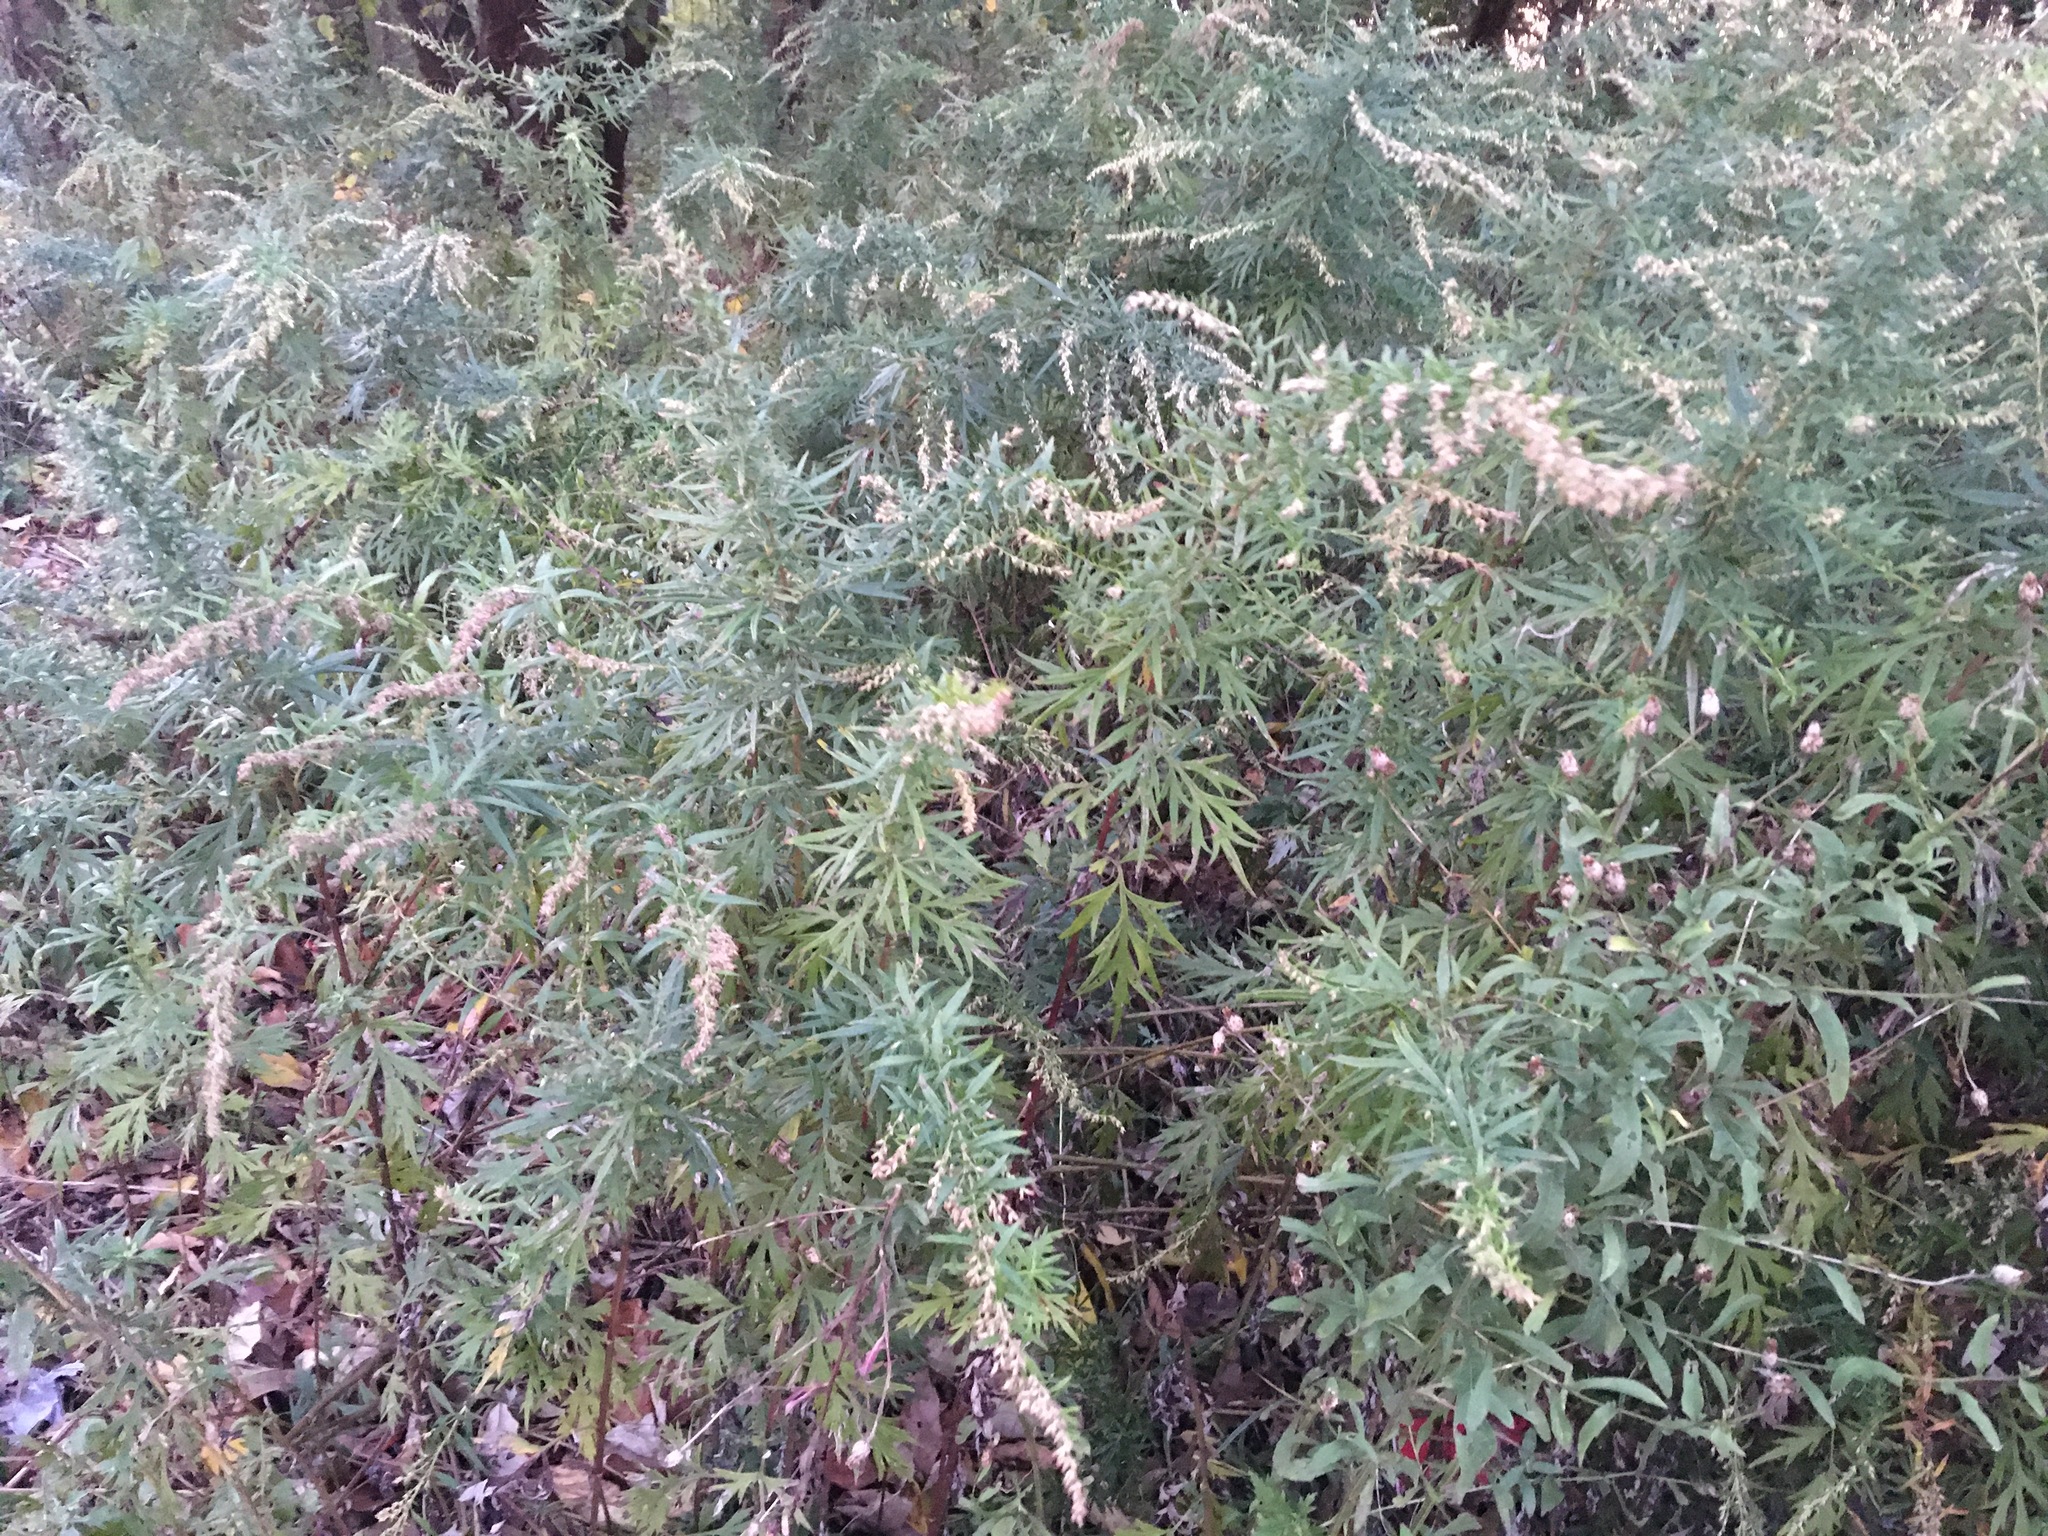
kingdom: Plantae
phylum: Tracheophyta
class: Magnoliopsida
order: Asterales
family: Asteraceae
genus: Artemisia
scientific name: Artemisia vulgaris
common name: Mugwort
